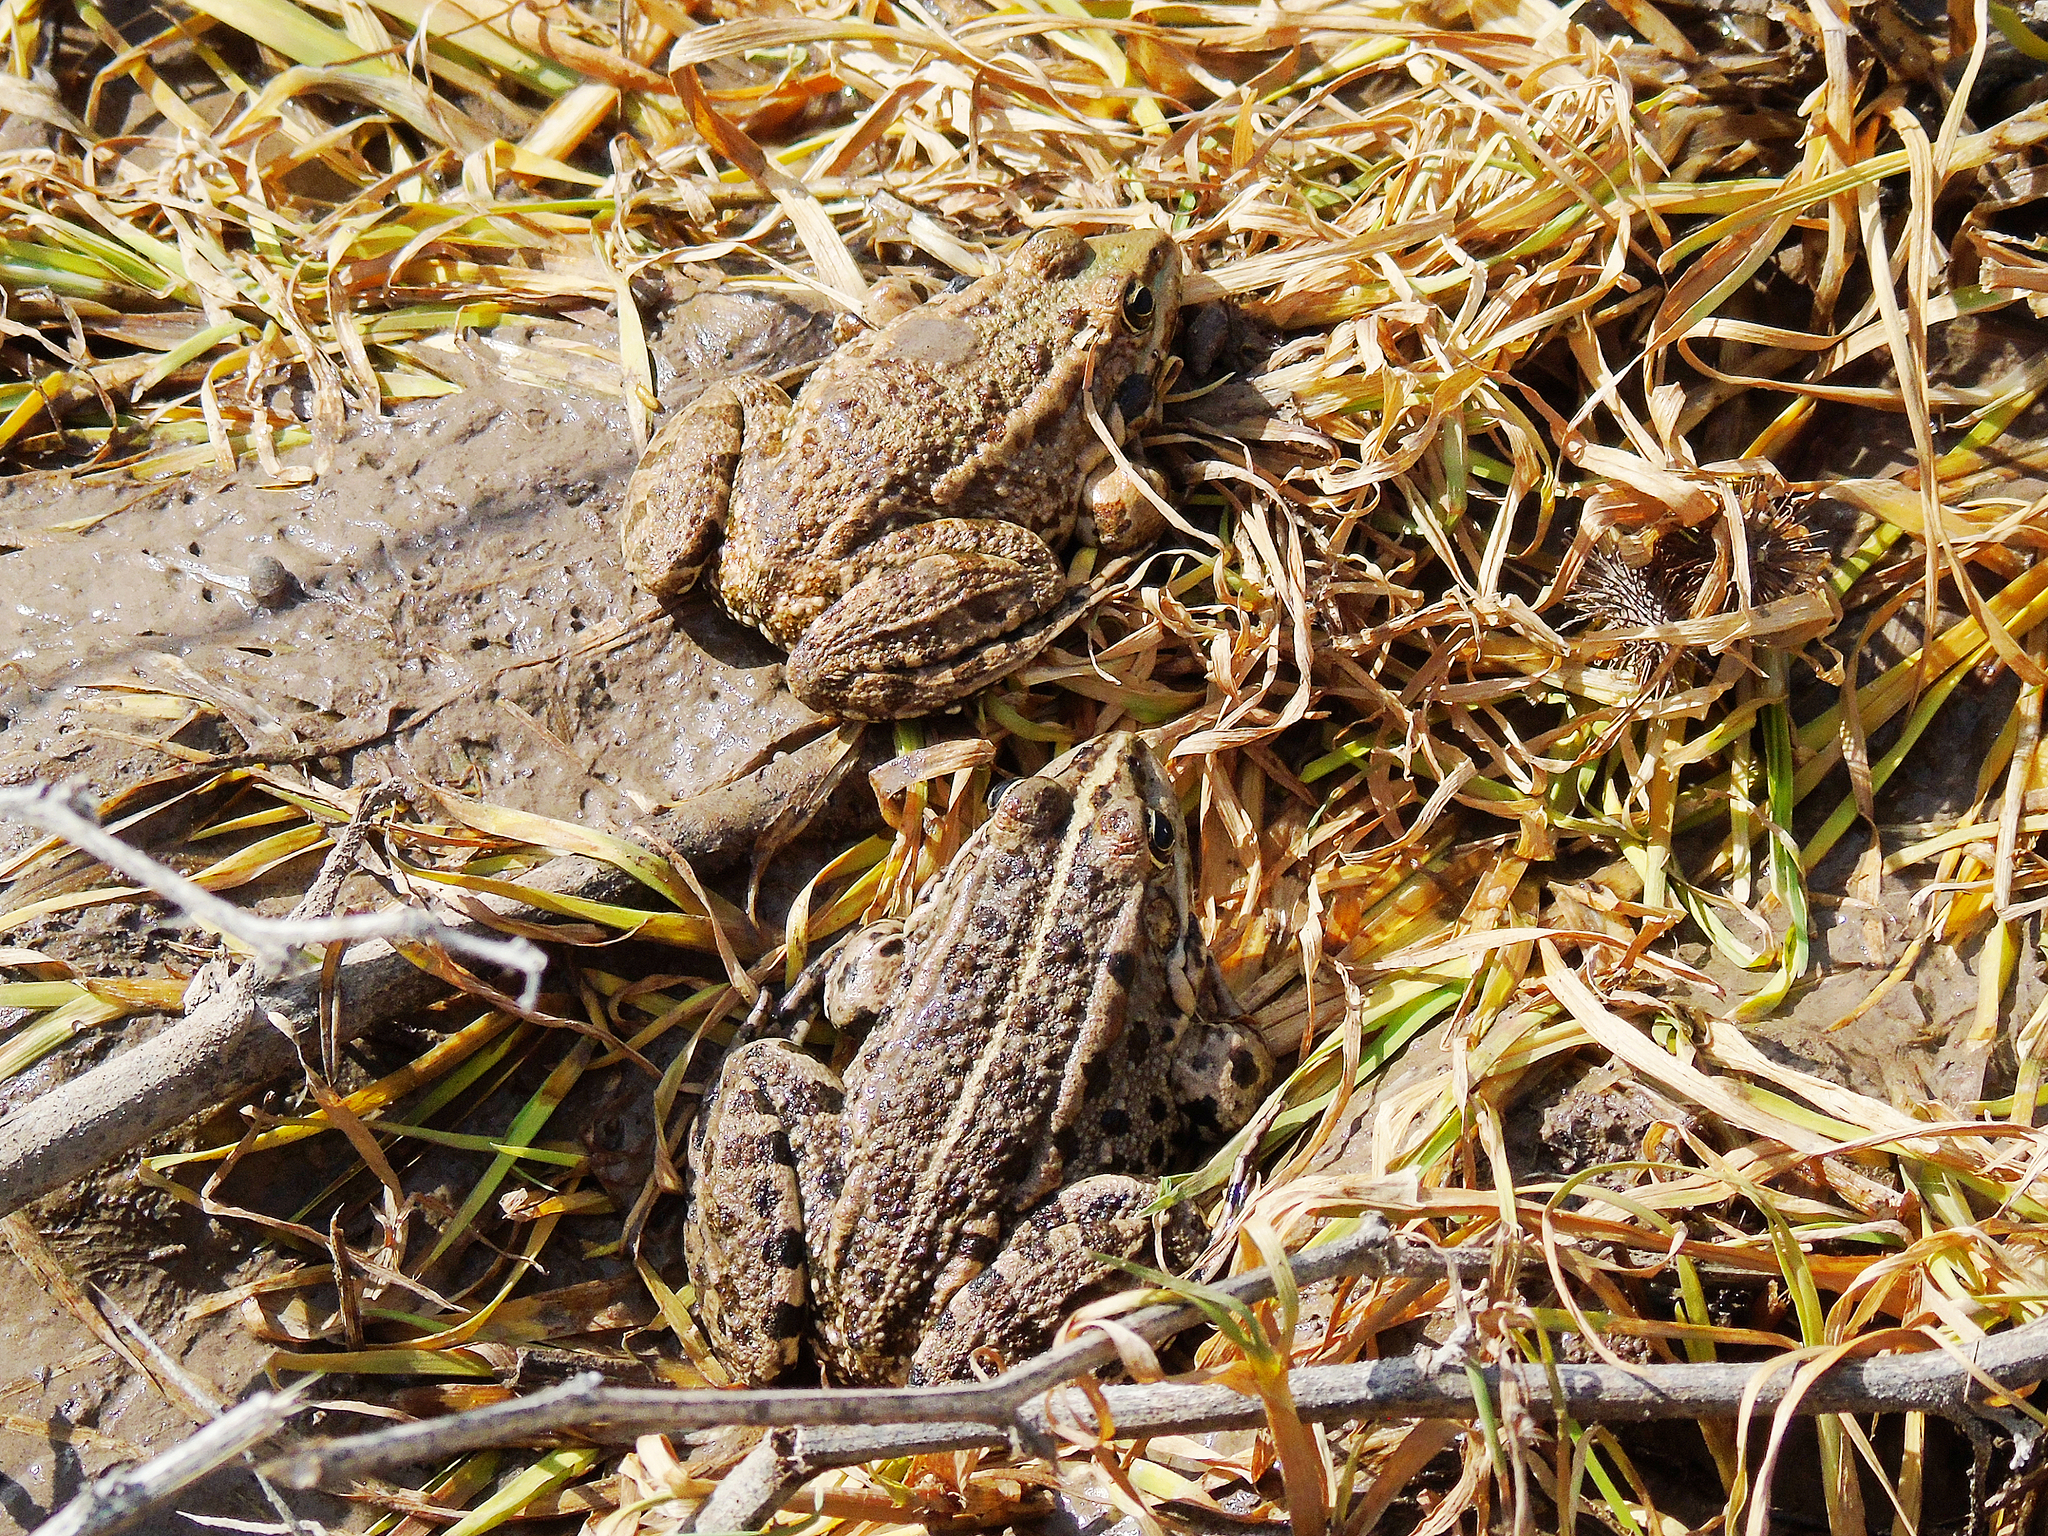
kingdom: Animalia
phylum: Chordata
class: Amphibia
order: Anura
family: Ranidae
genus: Pelophylax
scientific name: Pelophylax ridibundus
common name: Marsh frog
